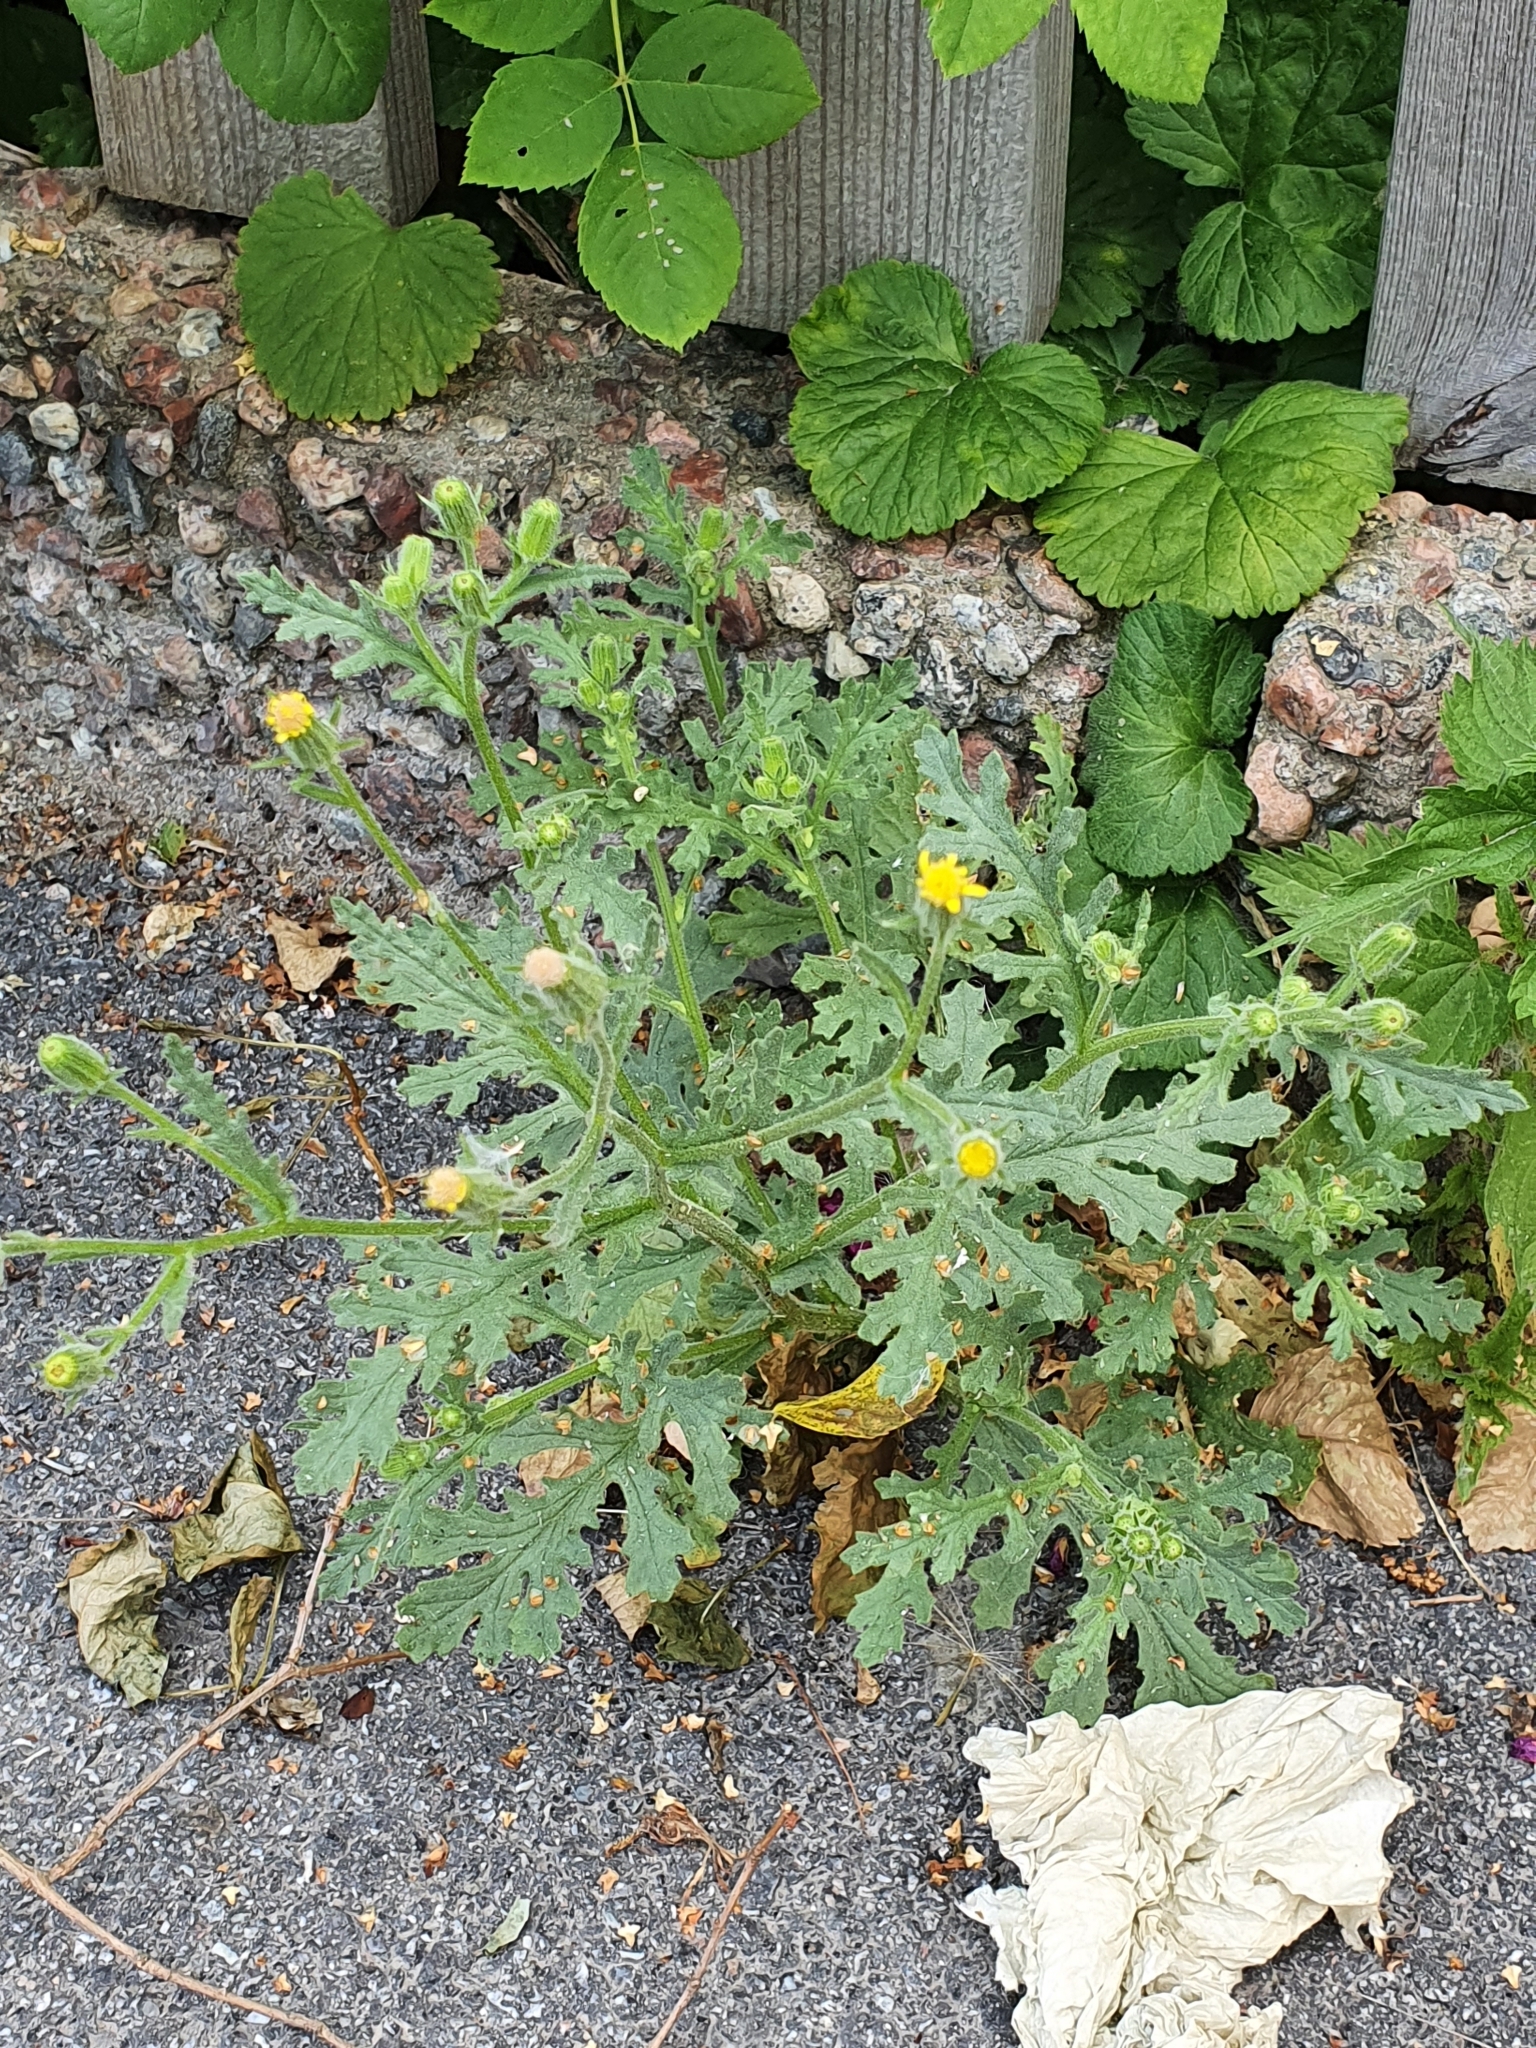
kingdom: Plantae
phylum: Tracheophyta
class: Magnoliopsida
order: Asterales
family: Asteraceae
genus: Senecio
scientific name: Senecio viscosus
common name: Sticky groundsel
